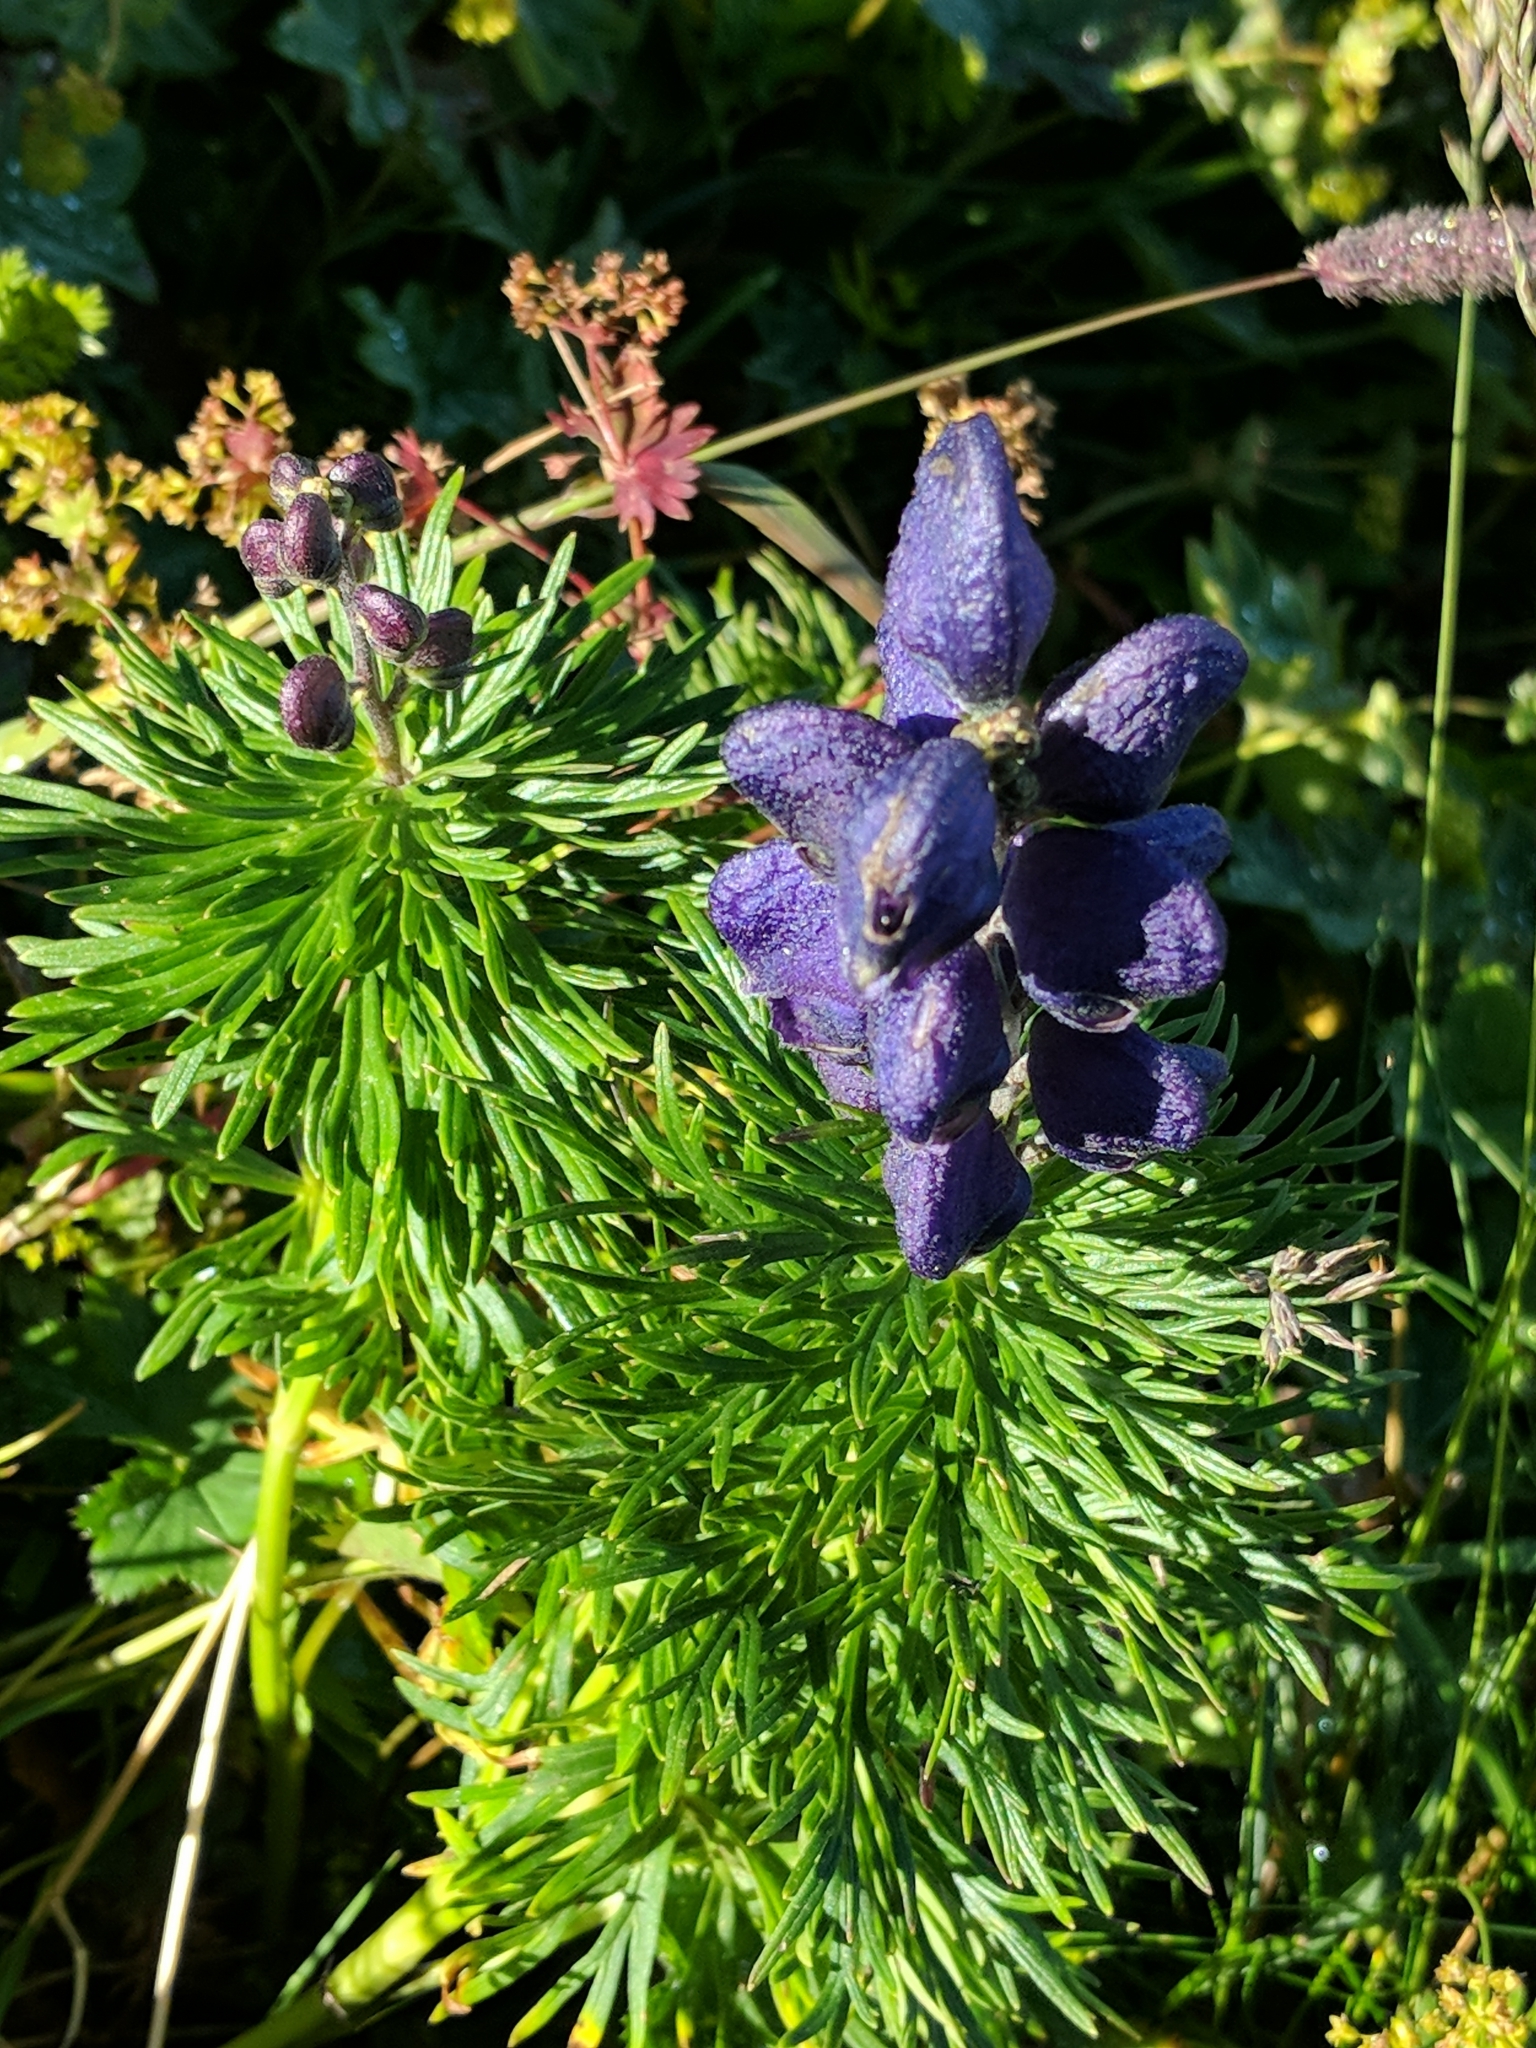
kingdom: Plantae
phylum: Tracheophyta
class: Magnoliopsida
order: Ranunculales
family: Ranunculaceae
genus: Aconitum
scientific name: Aconitum napellus
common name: Garden monkshood
